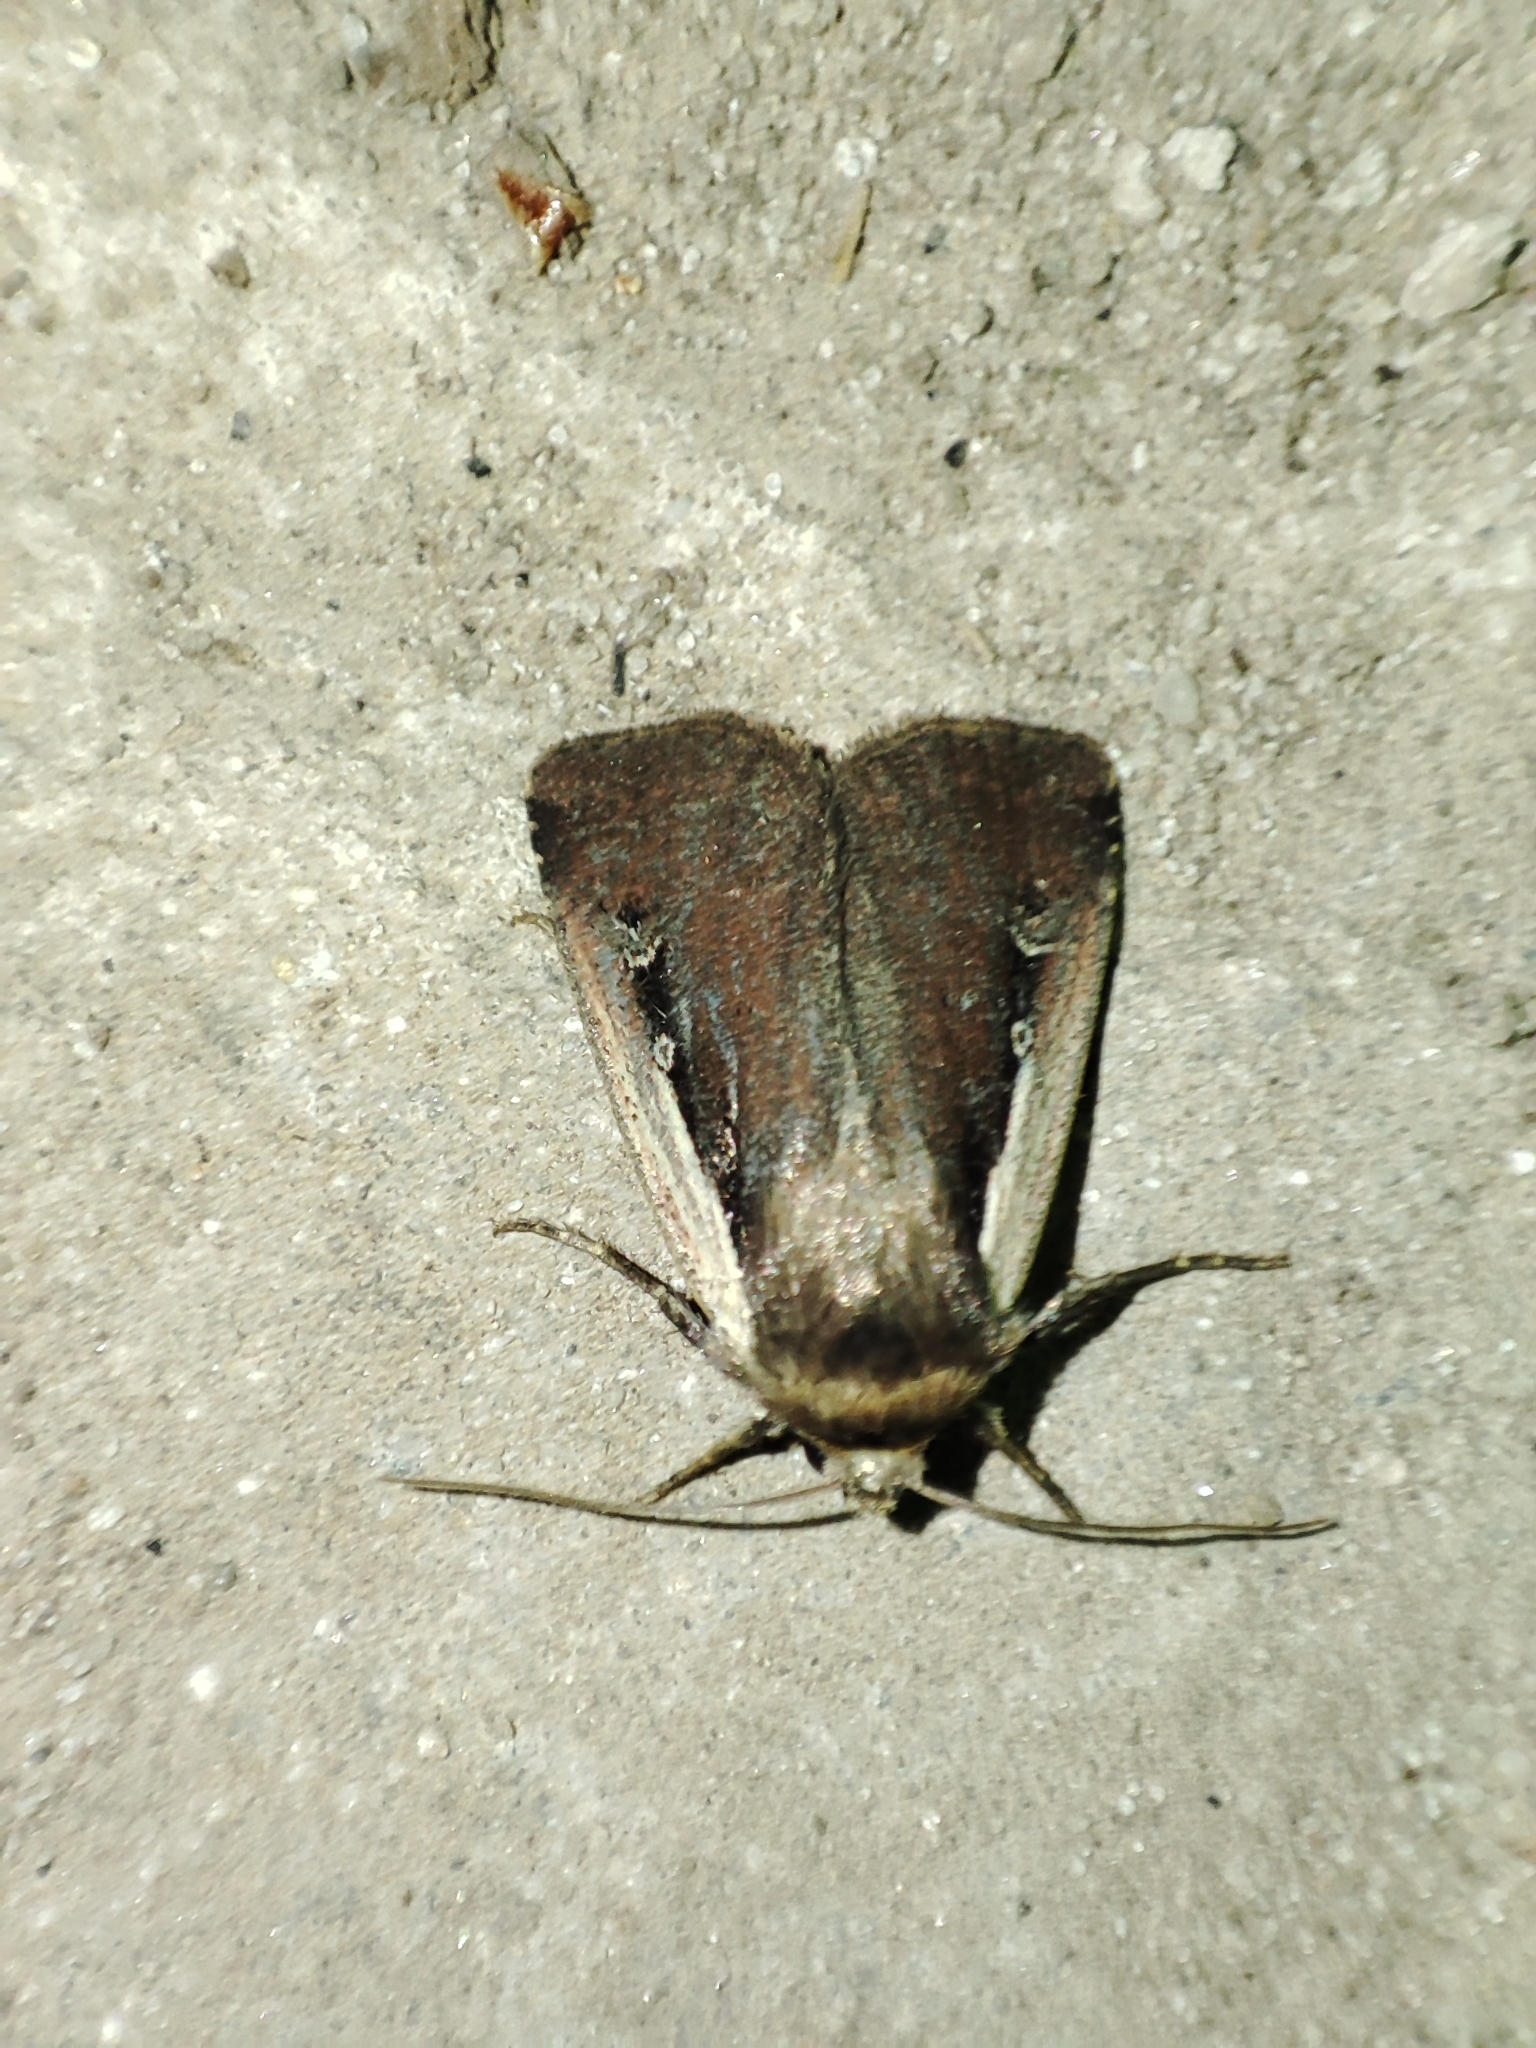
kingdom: Animalia
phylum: Arthropoda
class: Insecta
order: Lepidoptera
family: Noctuidae
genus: Ochropleura
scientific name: Ochropleura plecta
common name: Flame shoulder
